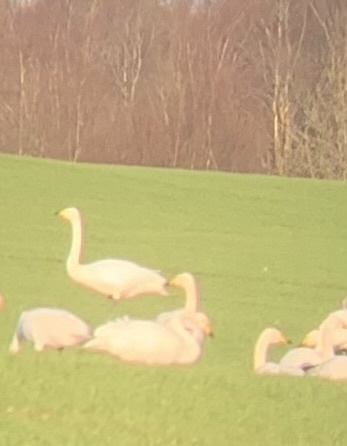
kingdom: Animalia
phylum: Chordata
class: Aves
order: Anseriformes
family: Anatidae
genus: Cygnus
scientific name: Cygnus cygnus
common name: Whooper swan
